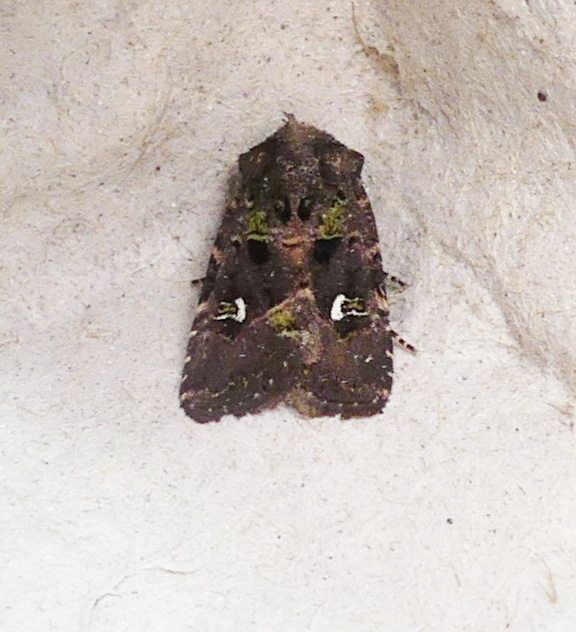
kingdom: Animalia
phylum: Arthropoda
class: Insecta
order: Lepidoptera
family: Noctuidae
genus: Lacinipolia
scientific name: Lacinipolia renigera
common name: Kidney-spotted minor
